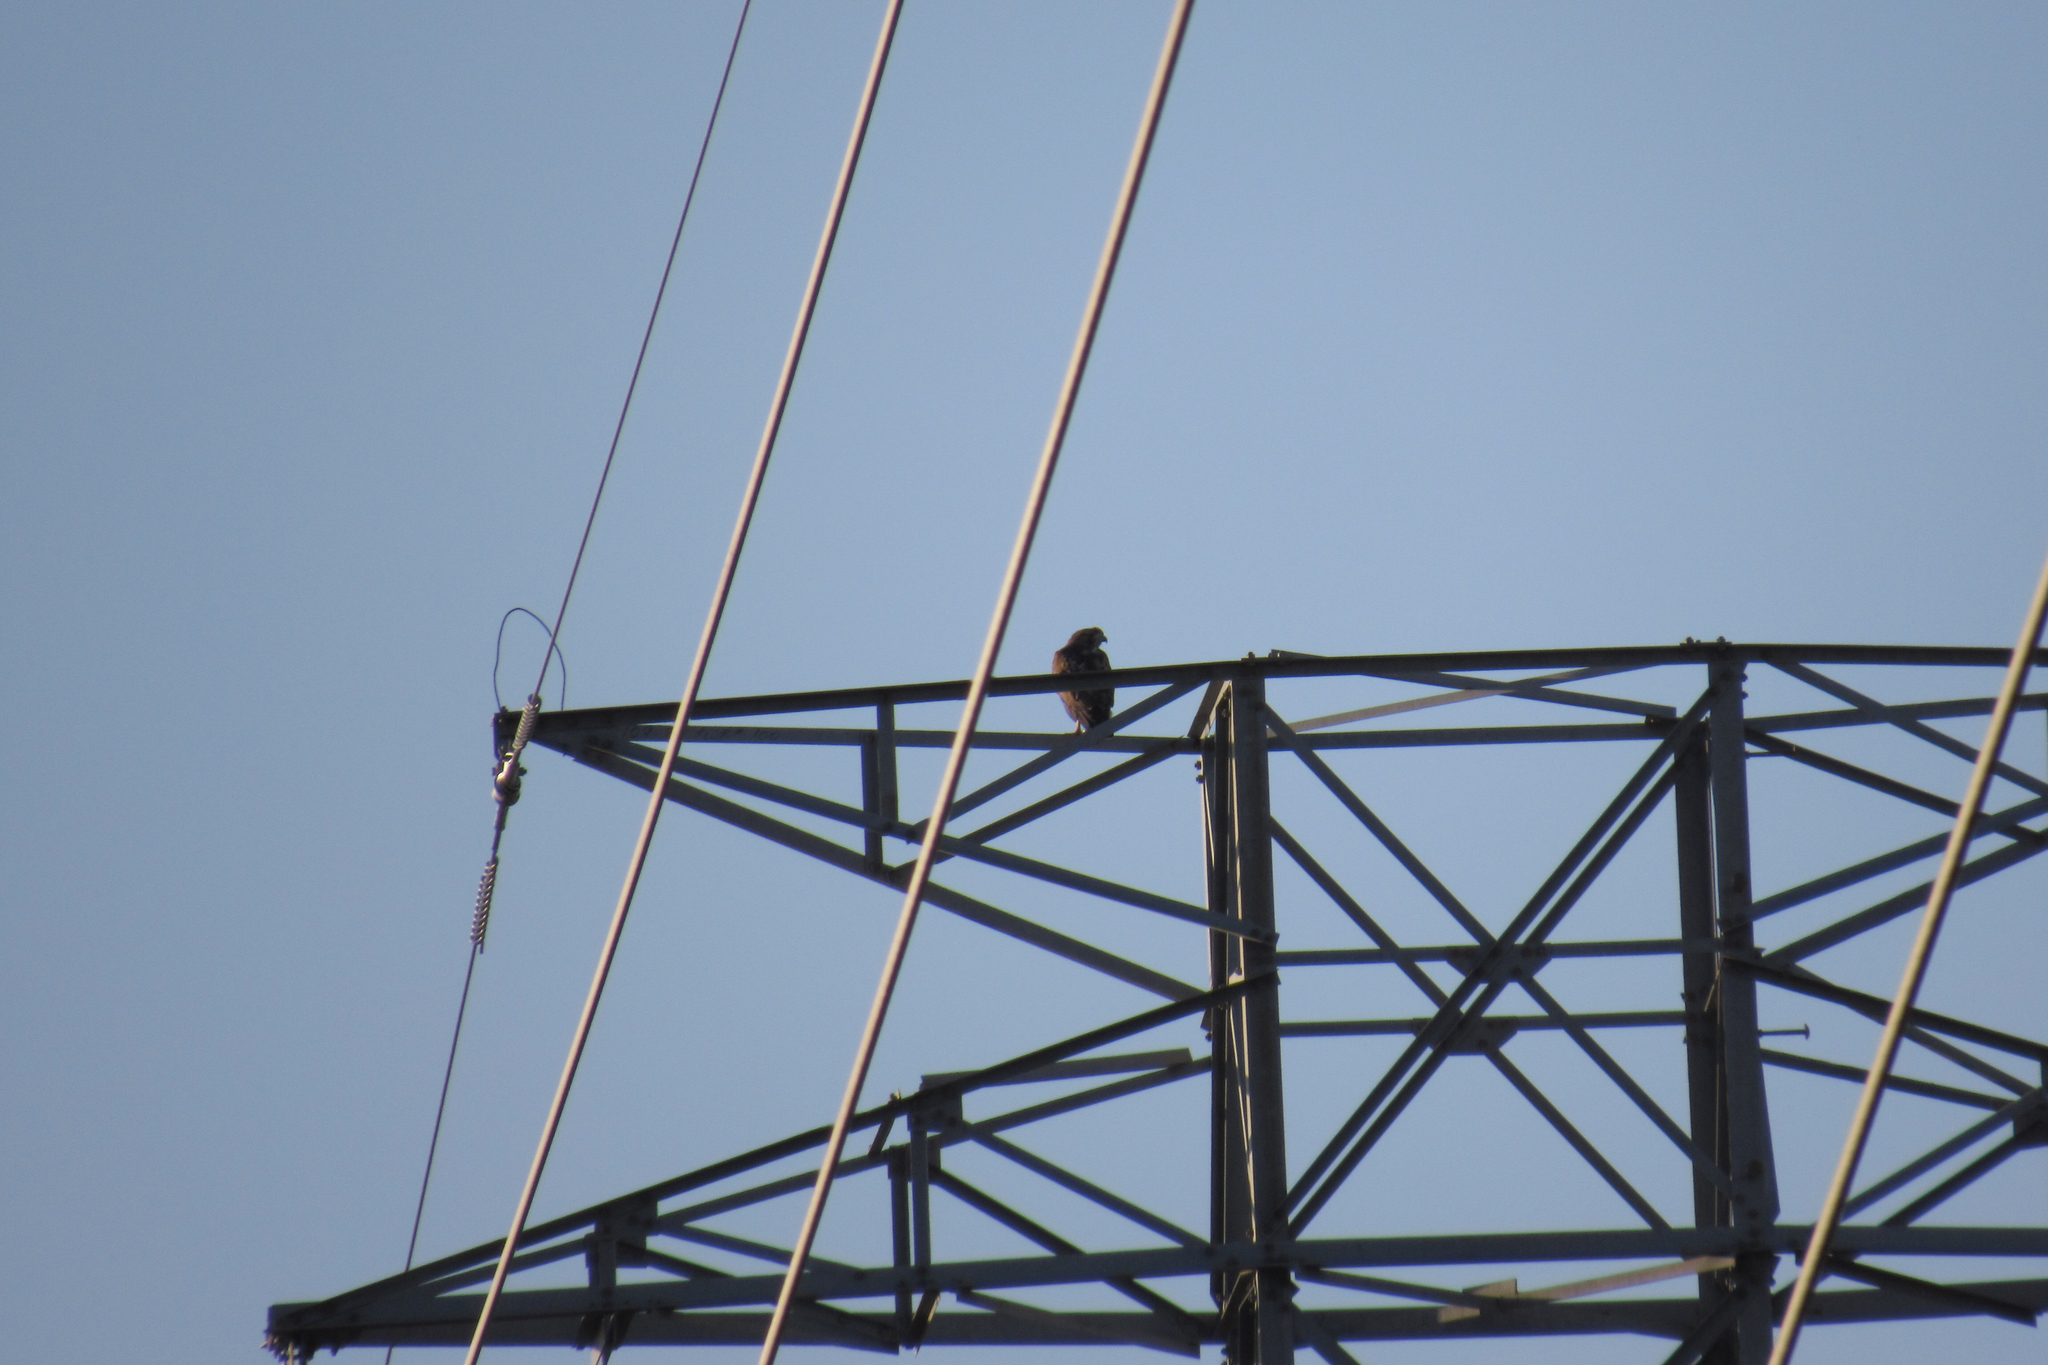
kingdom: Animalia
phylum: Chordata
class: Aves
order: Accipitriformes
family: Accipitridae
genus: Buteo
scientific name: Buteo jamaicensis
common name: Red-tailed hawk
